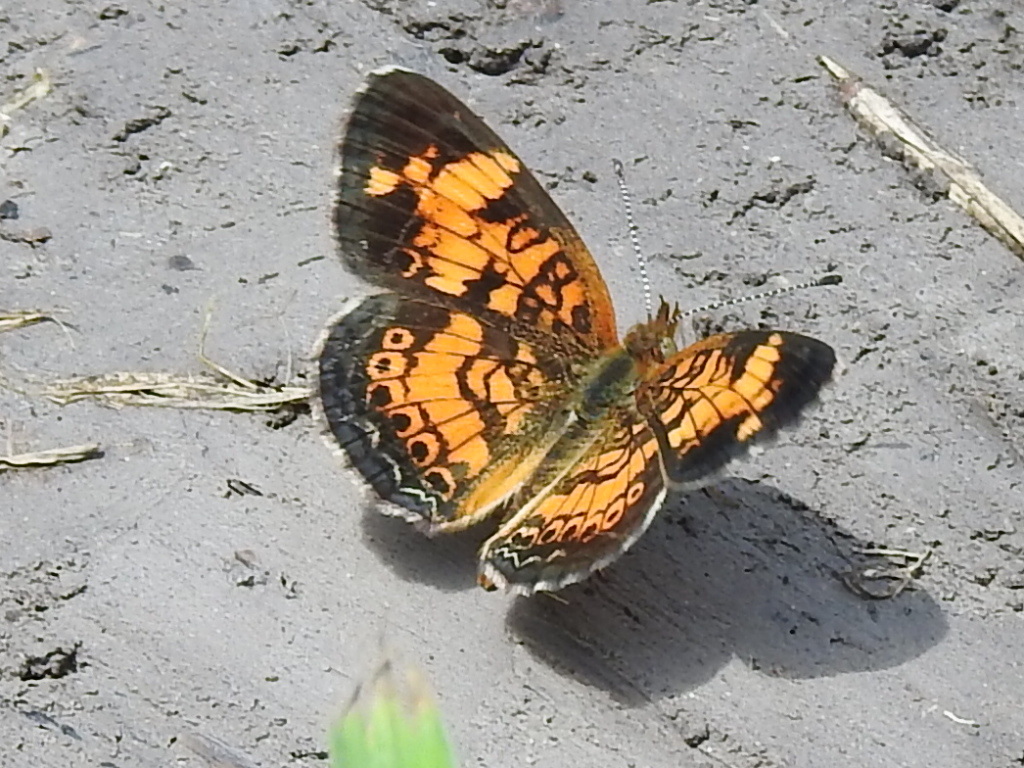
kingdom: Animalia
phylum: Arthropoda
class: Insecta
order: Lepidoptera
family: Nymphalidae
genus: Phyciodes
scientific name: Phyciodes tharos
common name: Pearl crescent
